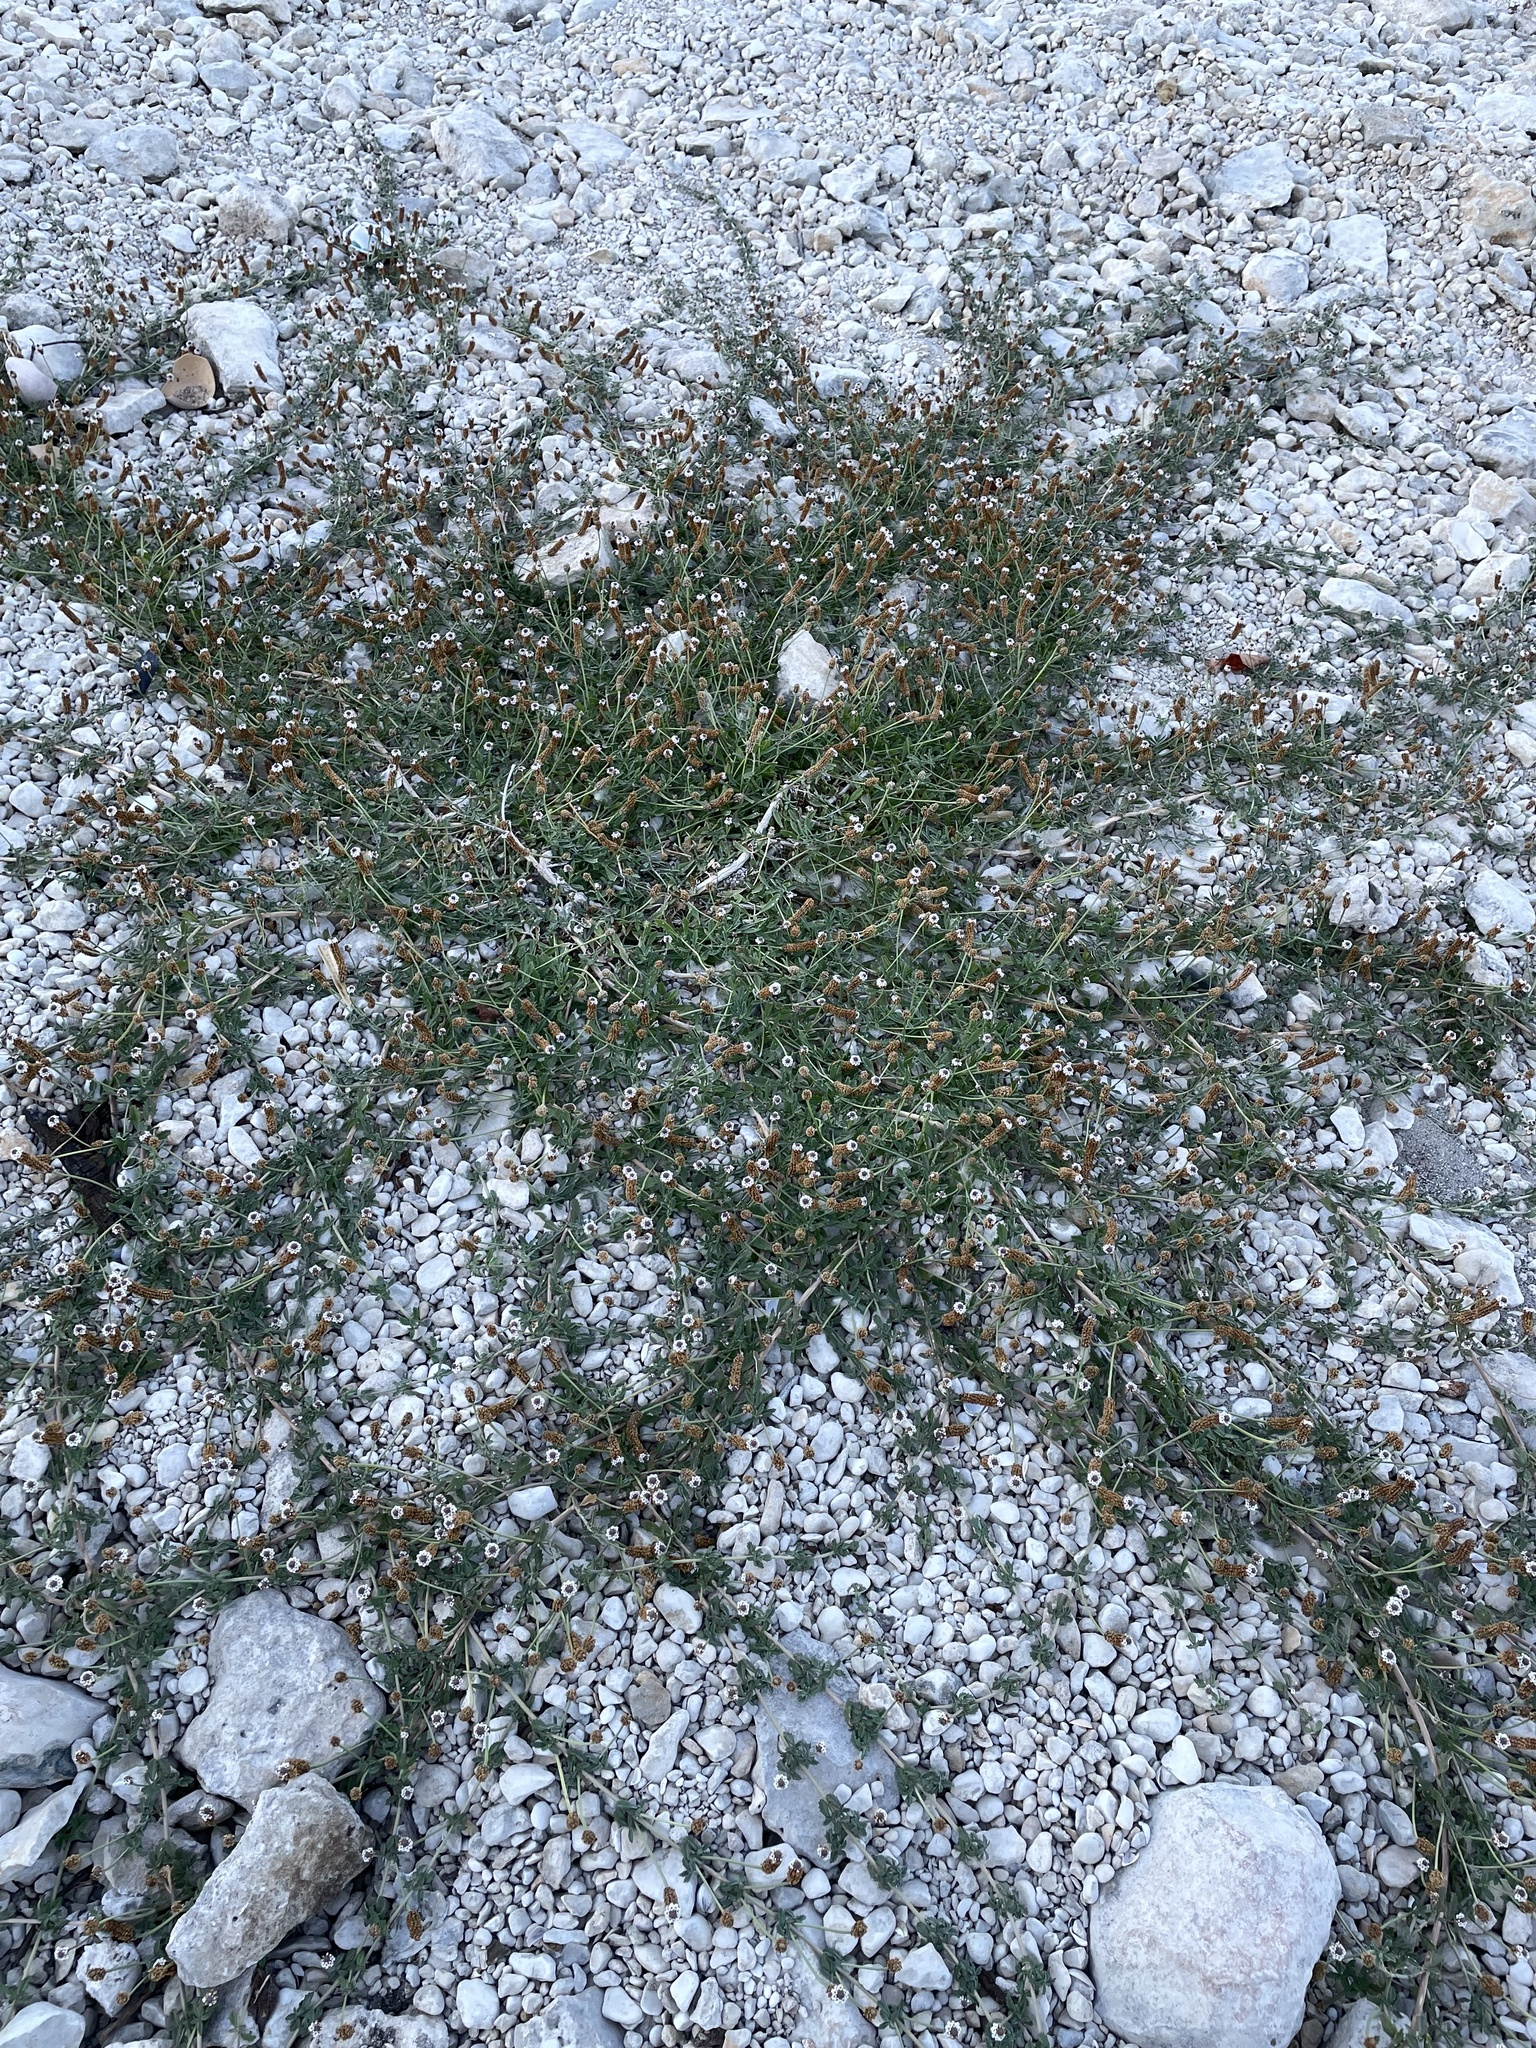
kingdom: Plantae
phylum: Tracheophyta
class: Magnoliopsida
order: Lamiales
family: Verbenaceae
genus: Phyla
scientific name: Phyla nodiflora
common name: Frogfruit
